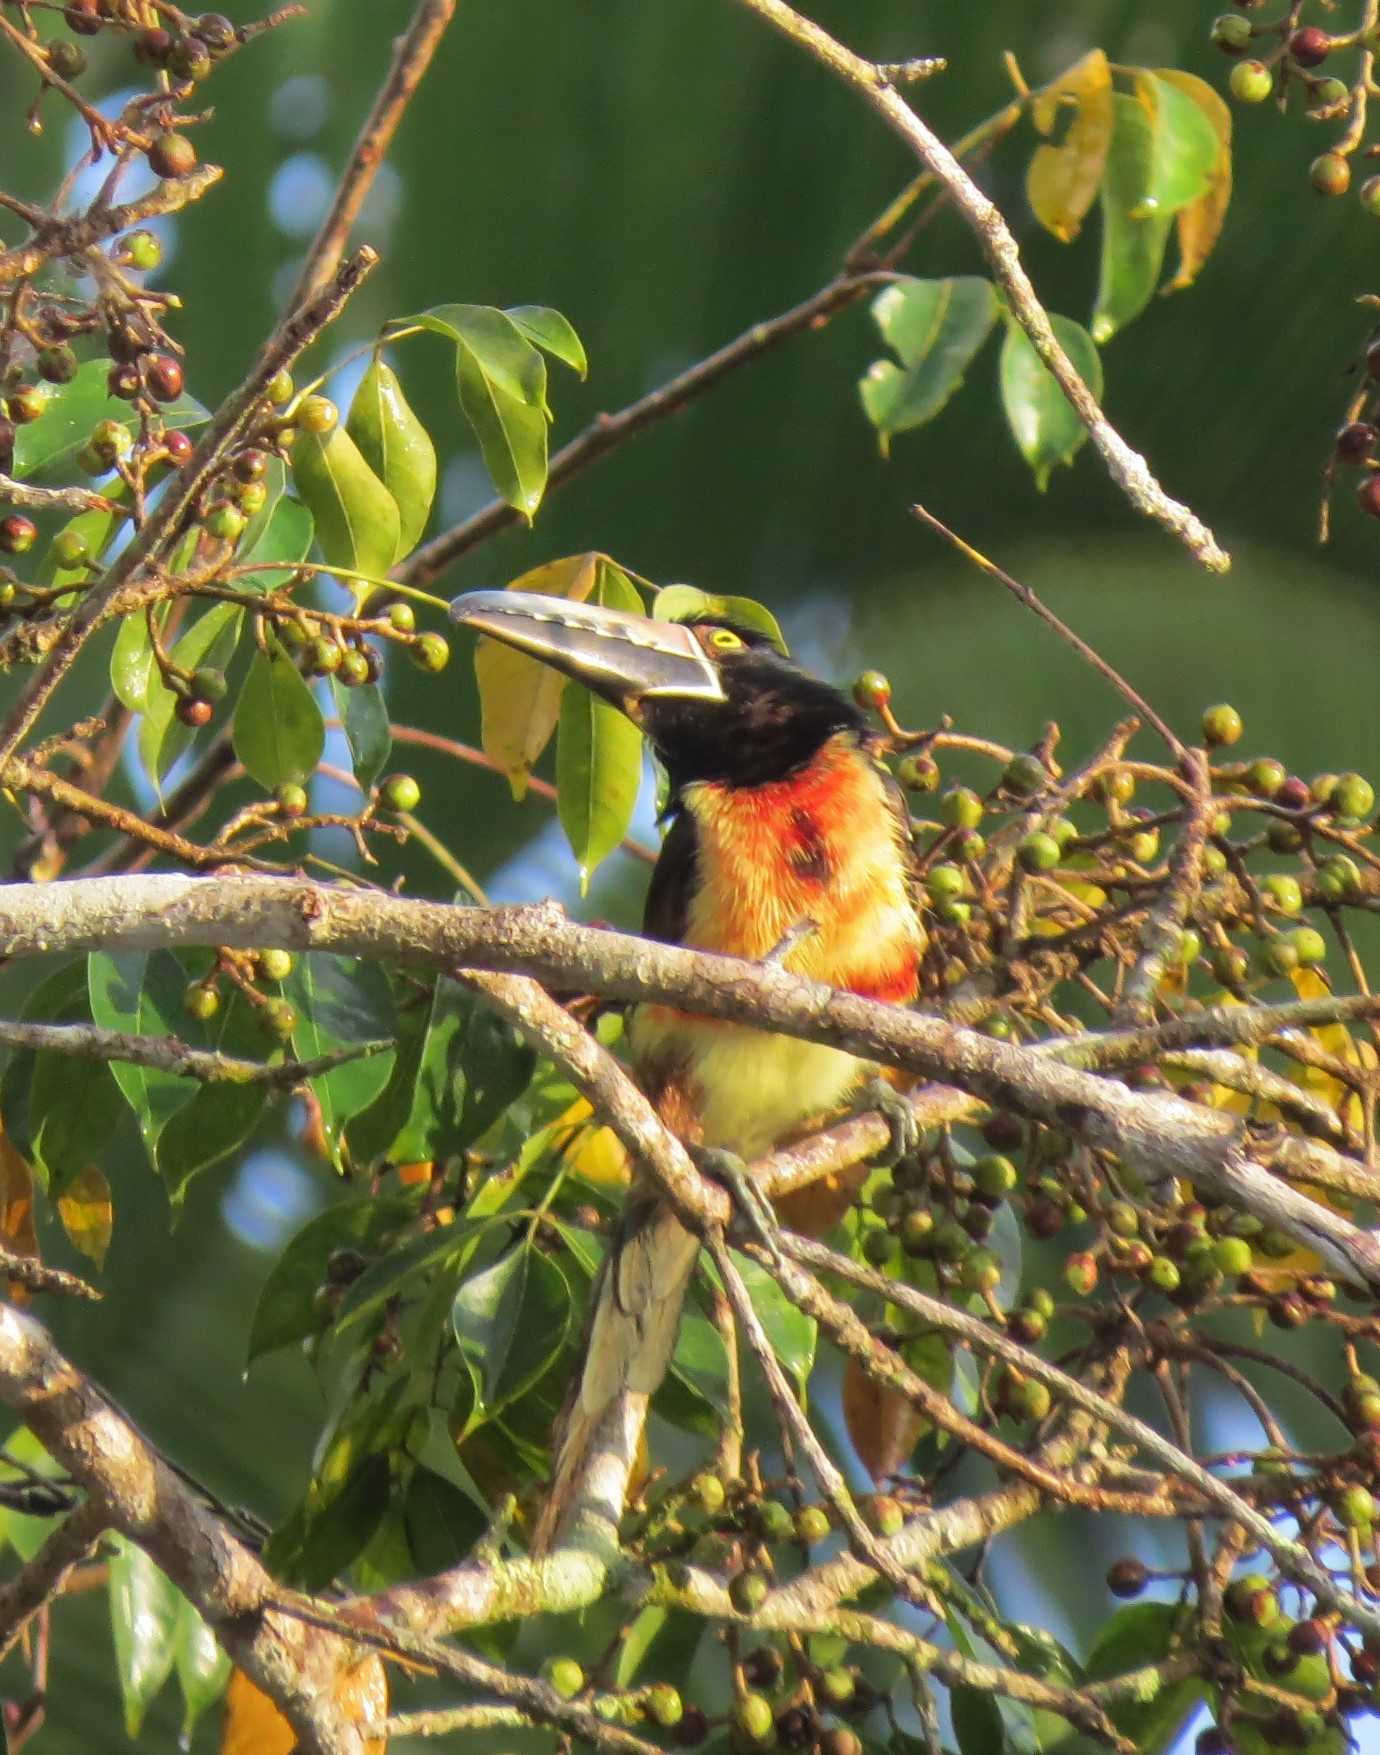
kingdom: Animalia
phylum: Chordata
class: Aves
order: Piciformes
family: Ramphastidae
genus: Pteroglossus
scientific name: Pteroglossus torquatus
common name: Collared aracari
